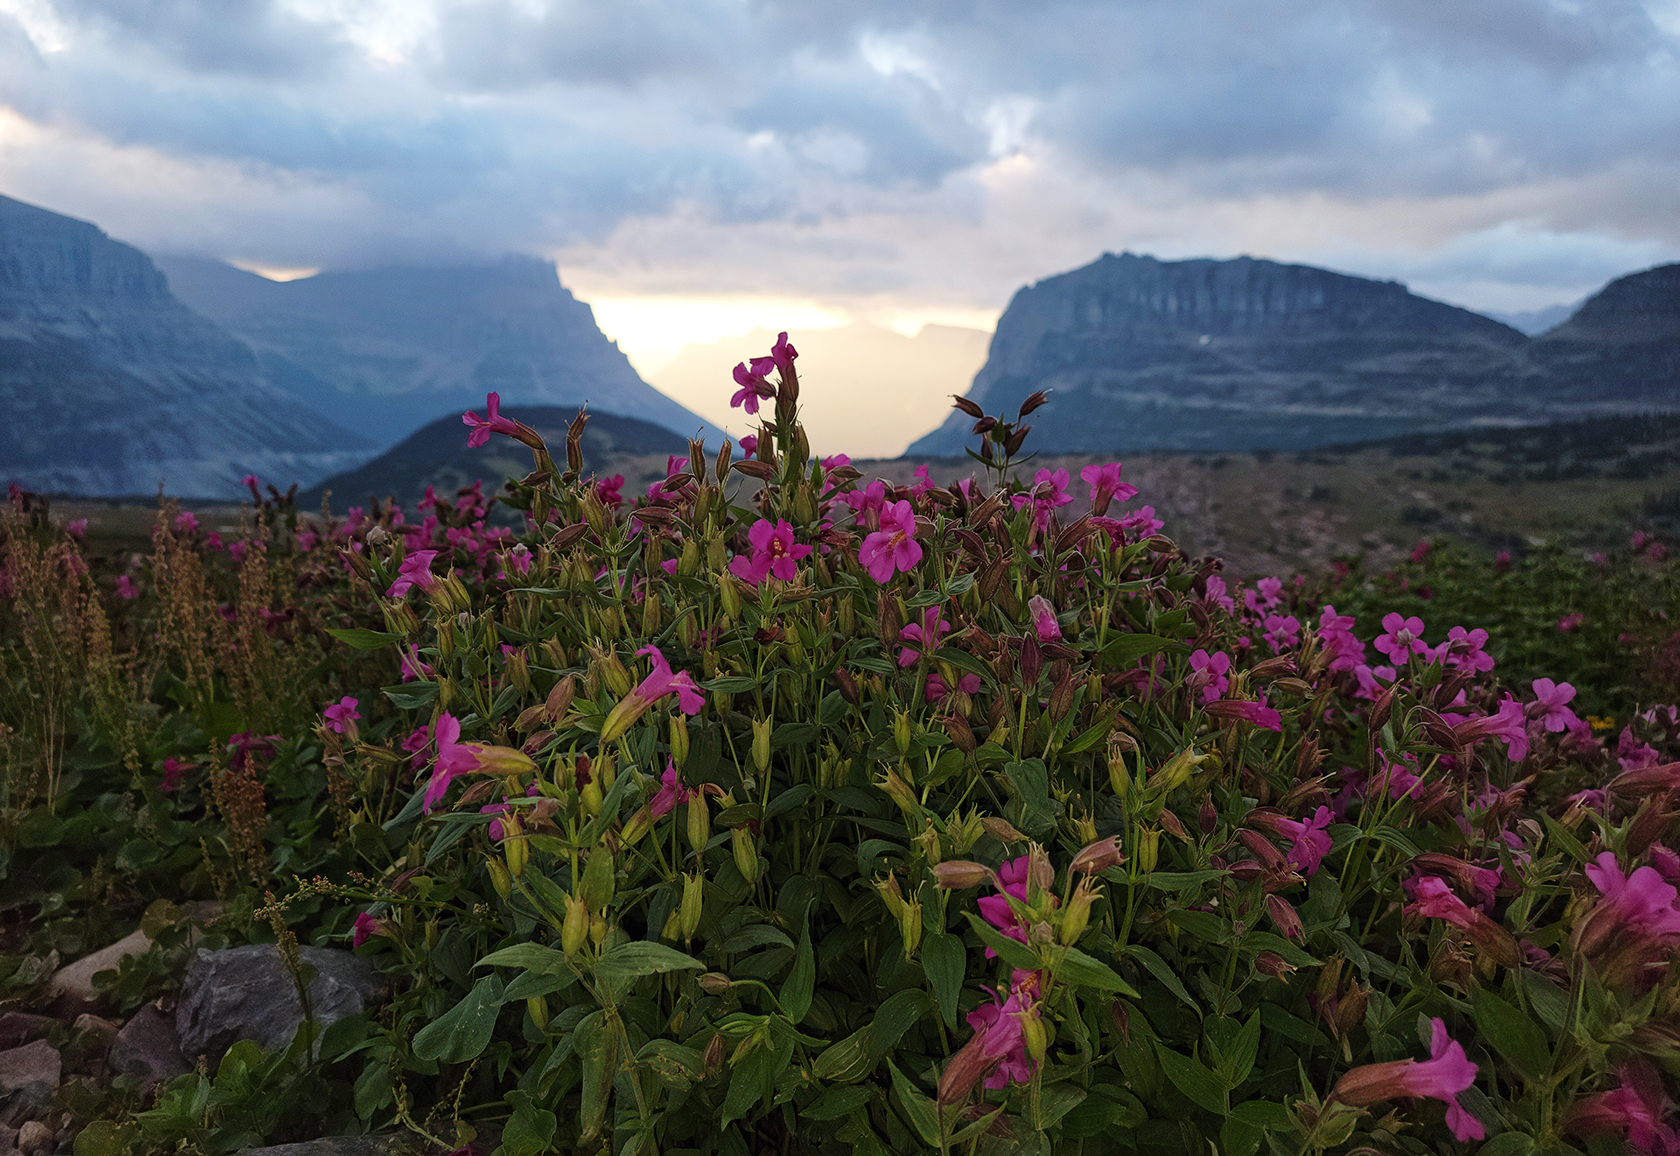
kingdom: Plantae
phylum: Tracheophyta
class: Magnoliopsida
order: Lamiales
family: Phrymaceae
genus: Erythranthe
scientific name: Erythranthe lewisii
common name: Lewis's monkey-flower
